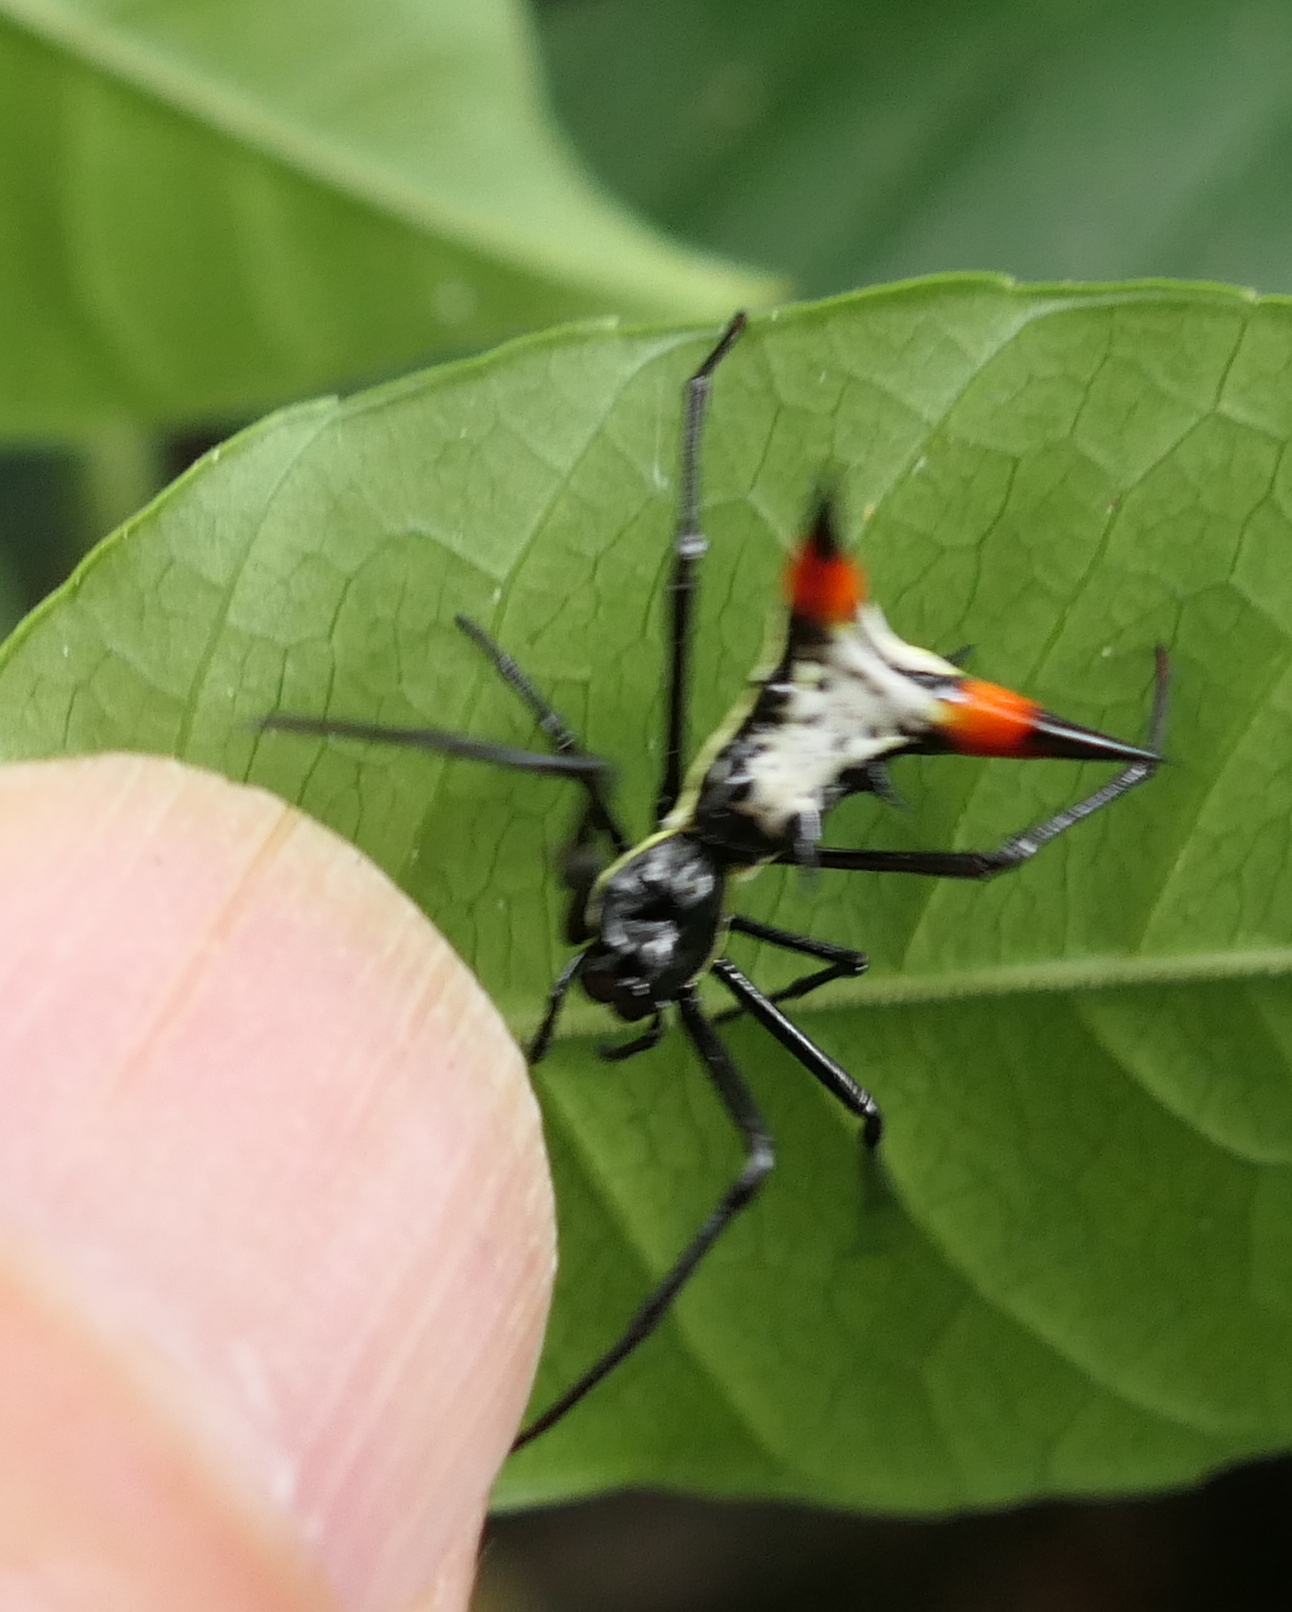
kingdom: Animalia
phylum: Arthropoda
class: Arachnida
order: Araneae
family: Araneidae
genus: Micrathena
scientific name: Micrathena schreibersi
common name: Orb weavers
